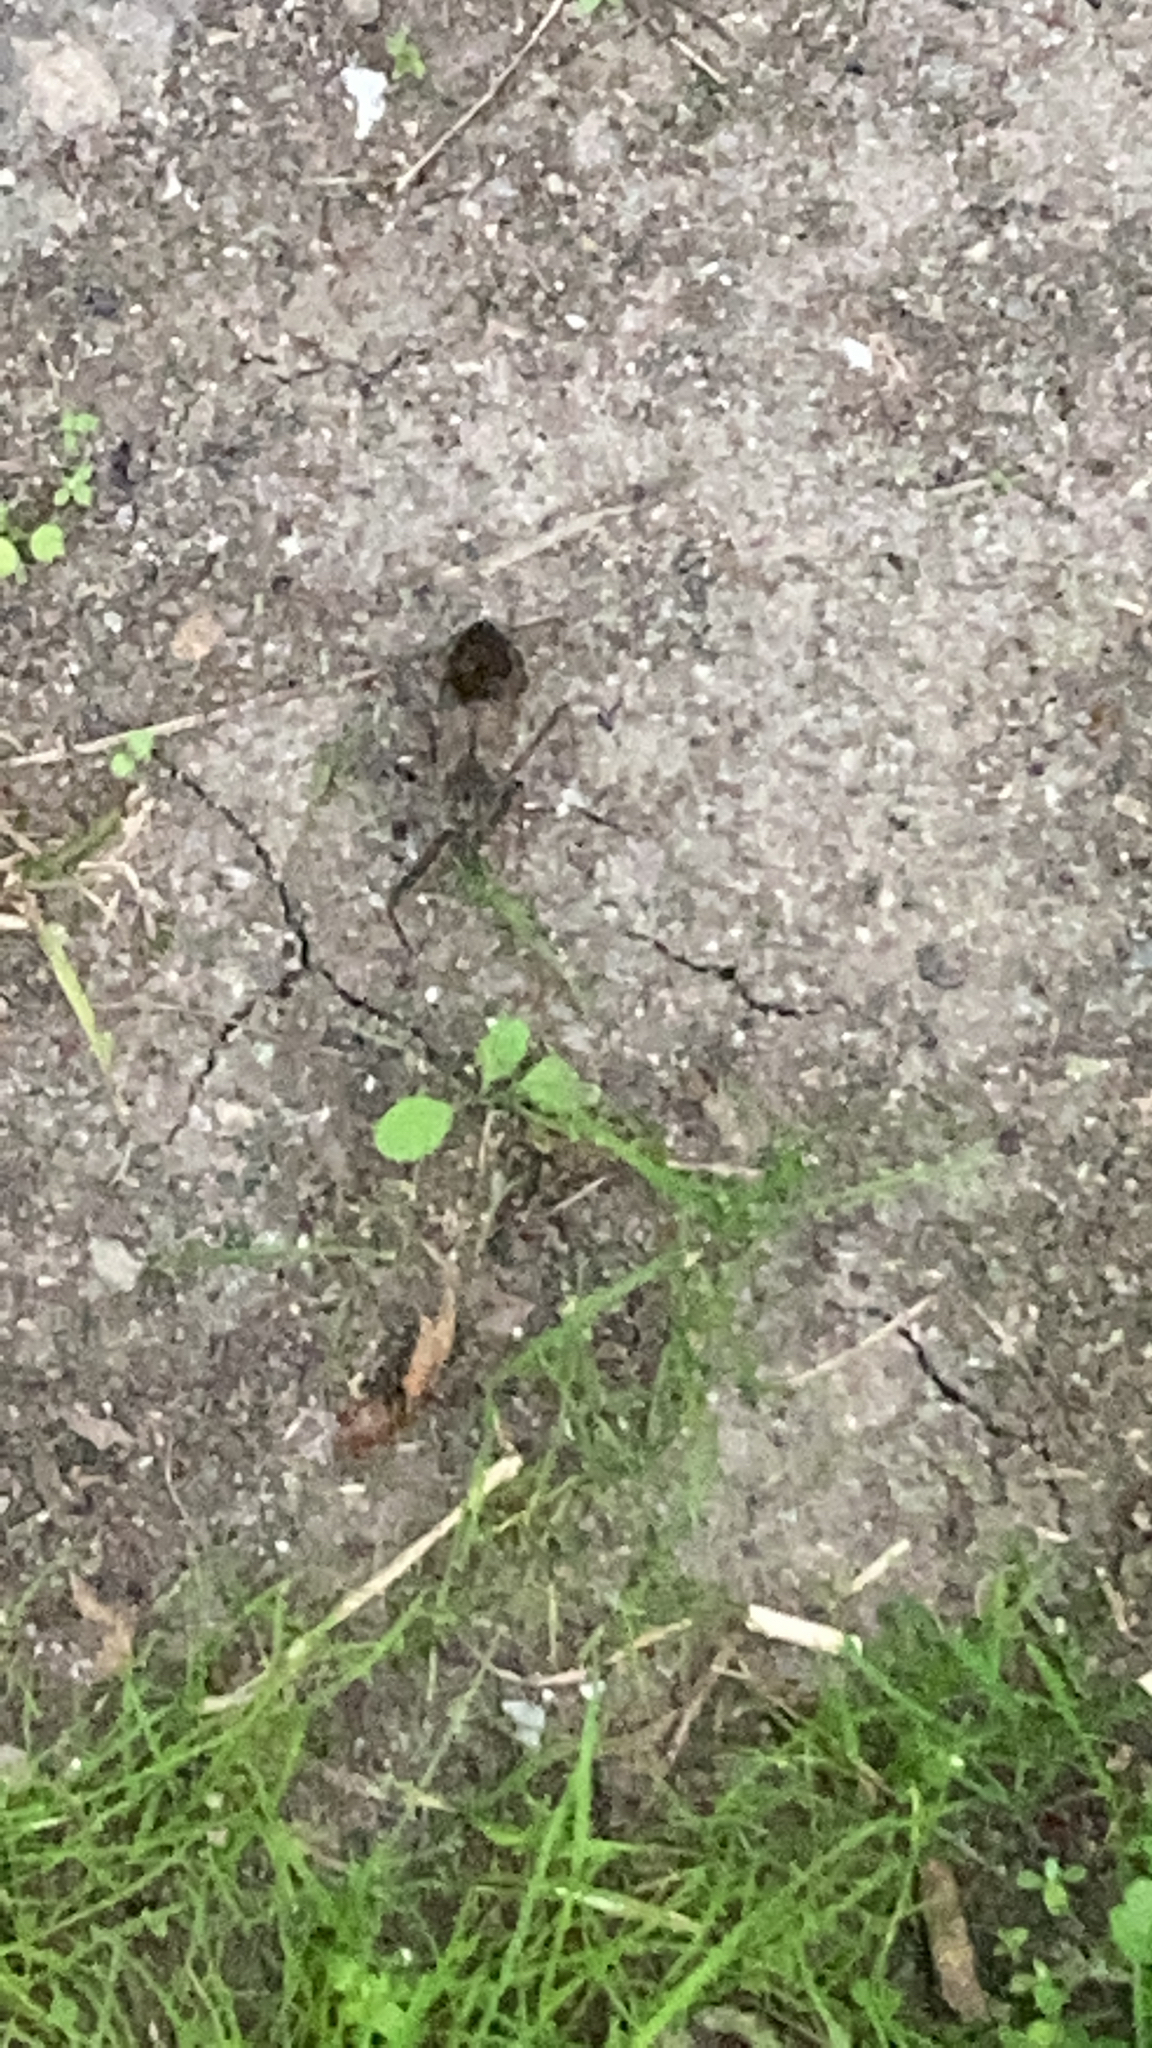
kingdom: Animalia
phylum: Arthropoda
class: Insecta
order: Hemiptera
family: Reduviidae
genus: Arilus
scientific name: Arilus cristatus
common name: North american wheel bug
